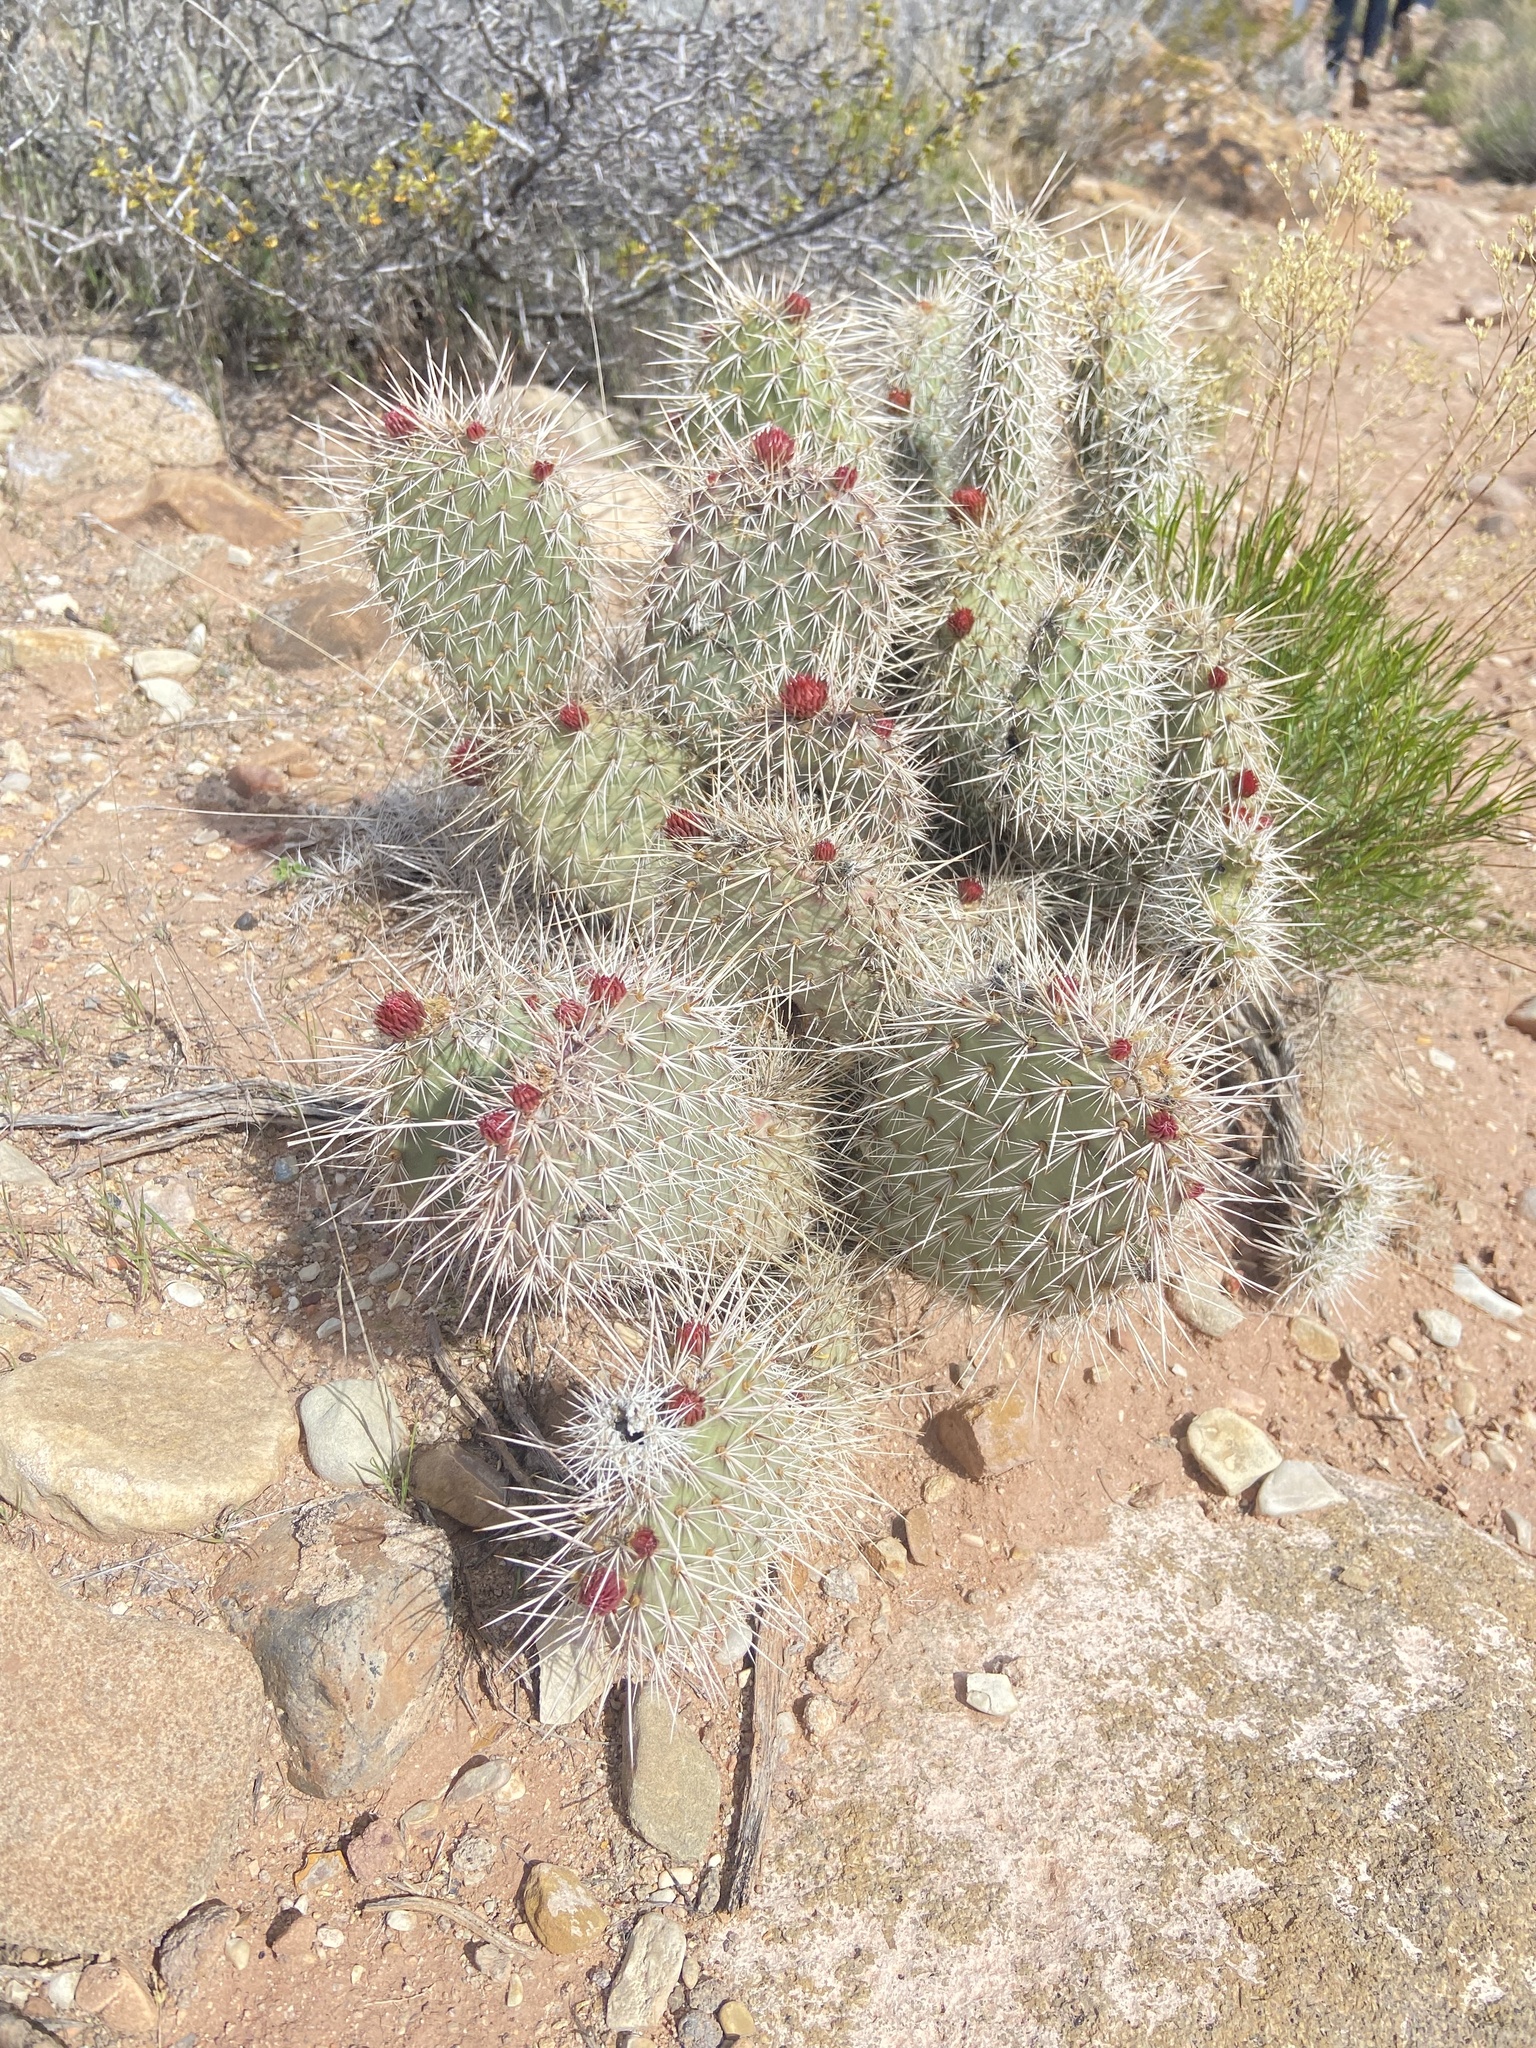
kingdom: Plantae
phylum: Tracheophyta
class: Magnoliopsida
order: Caryophyllales
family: Cactaceae
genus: Opuntia
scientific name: Opuntia polyacantha
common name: Plains prickly-pear
